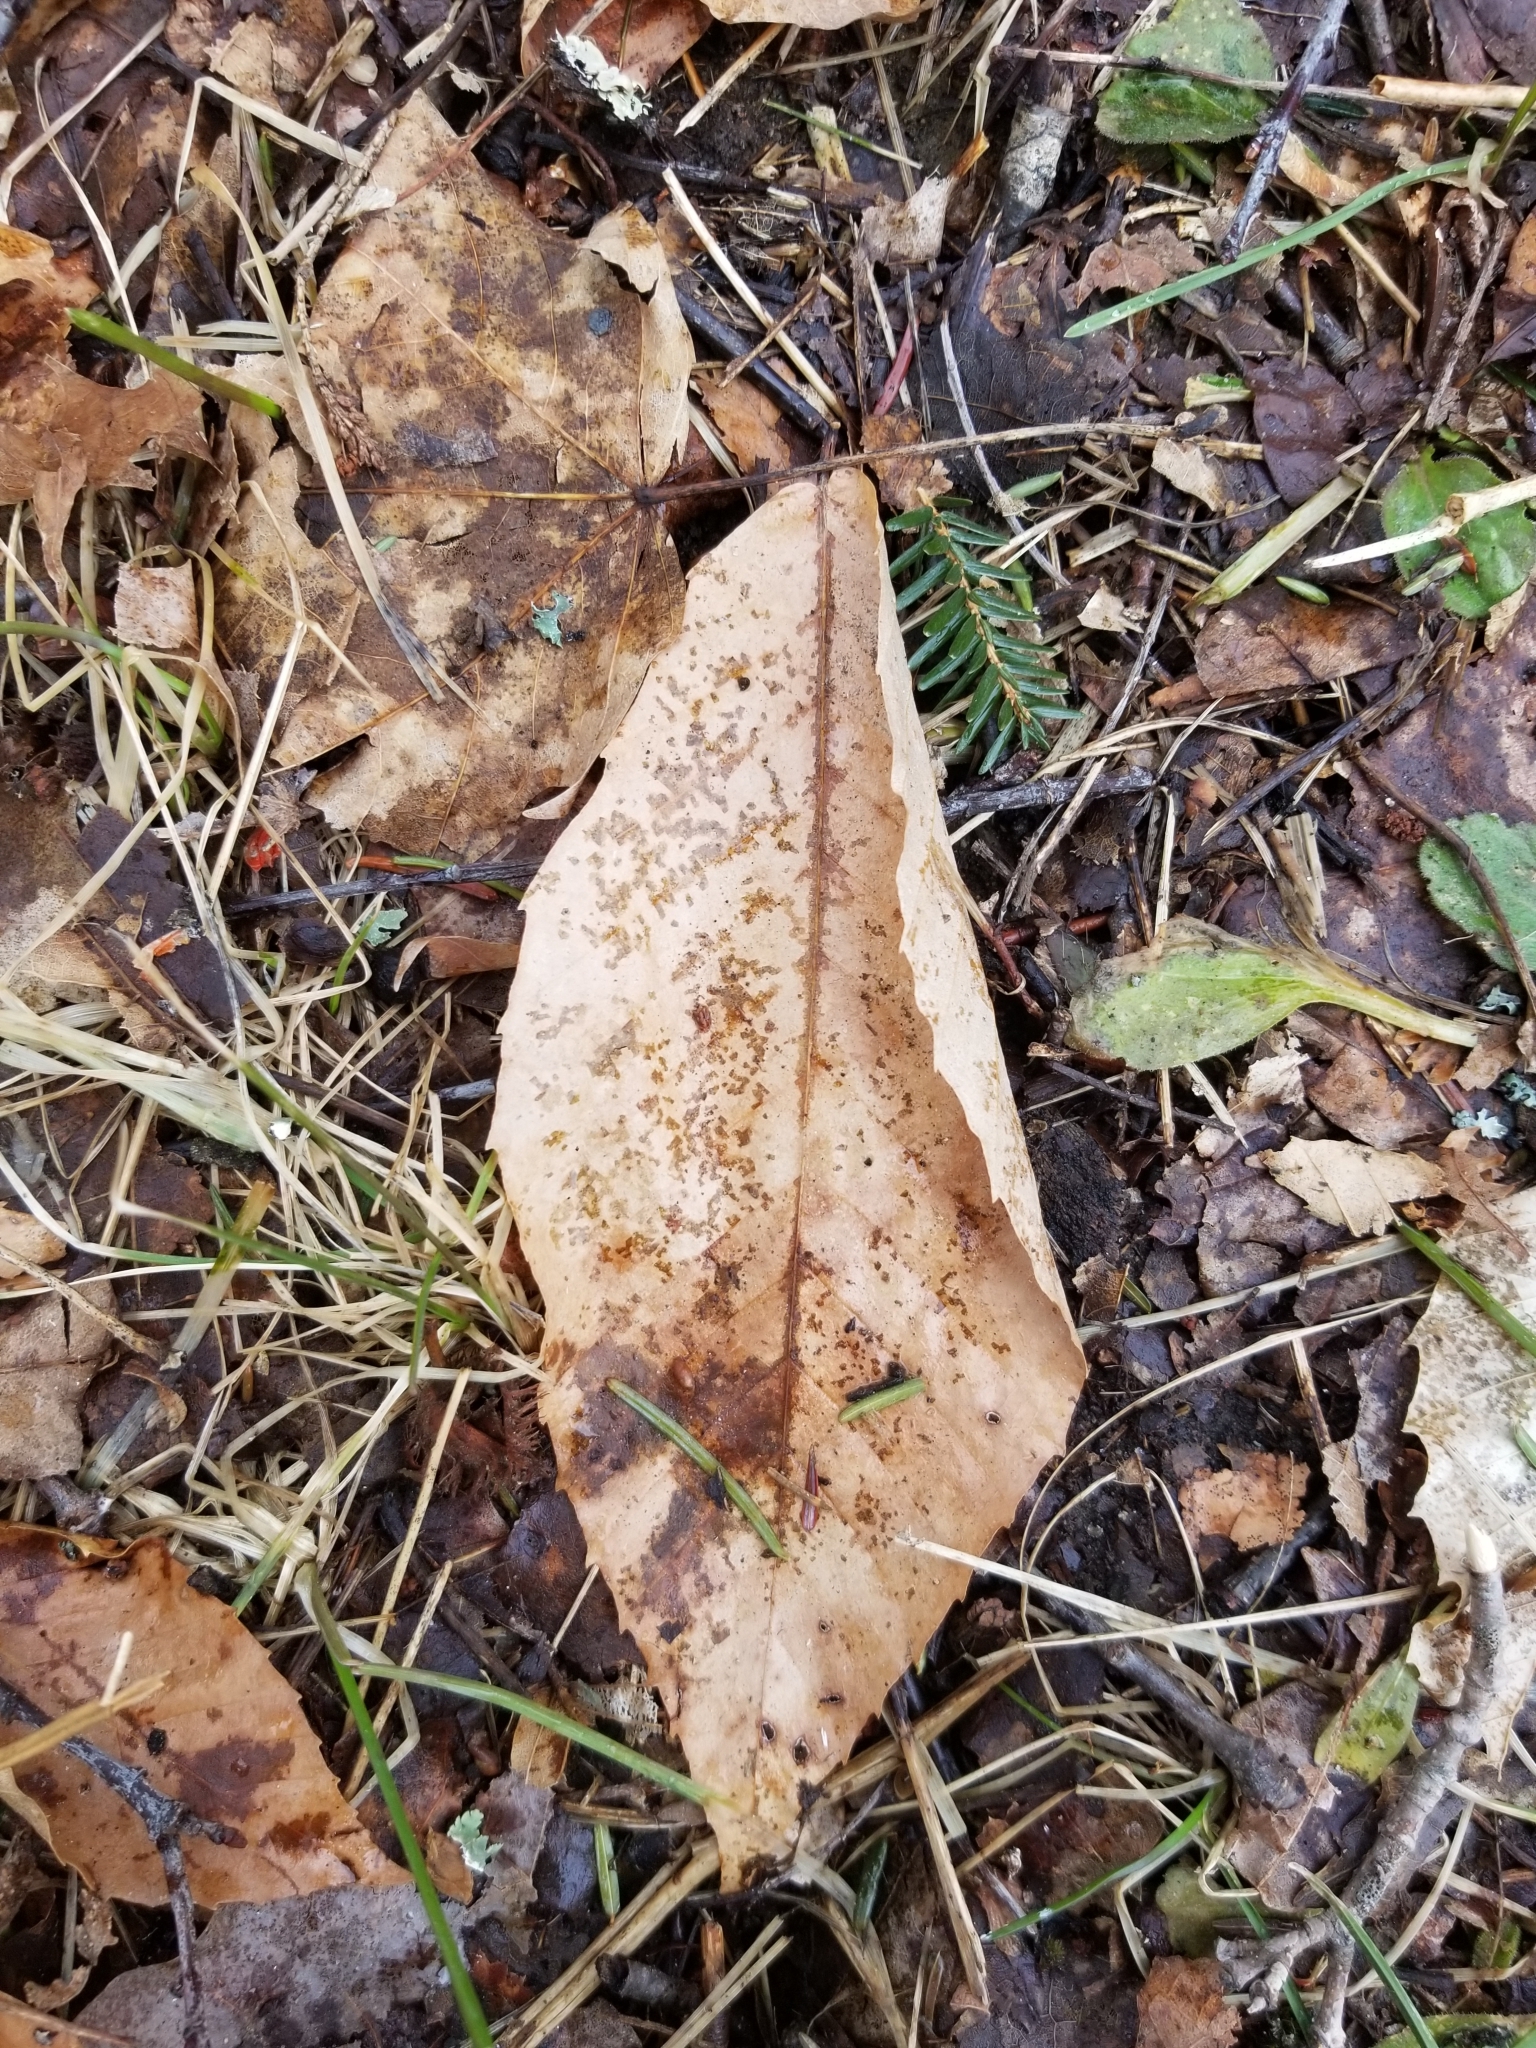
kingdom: Plantae
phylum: Tracheophyta
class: Magnoliopsida
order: Fagales
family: Fagaceae
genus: Fagus
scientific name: Fagus grandifolia
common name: American beech
